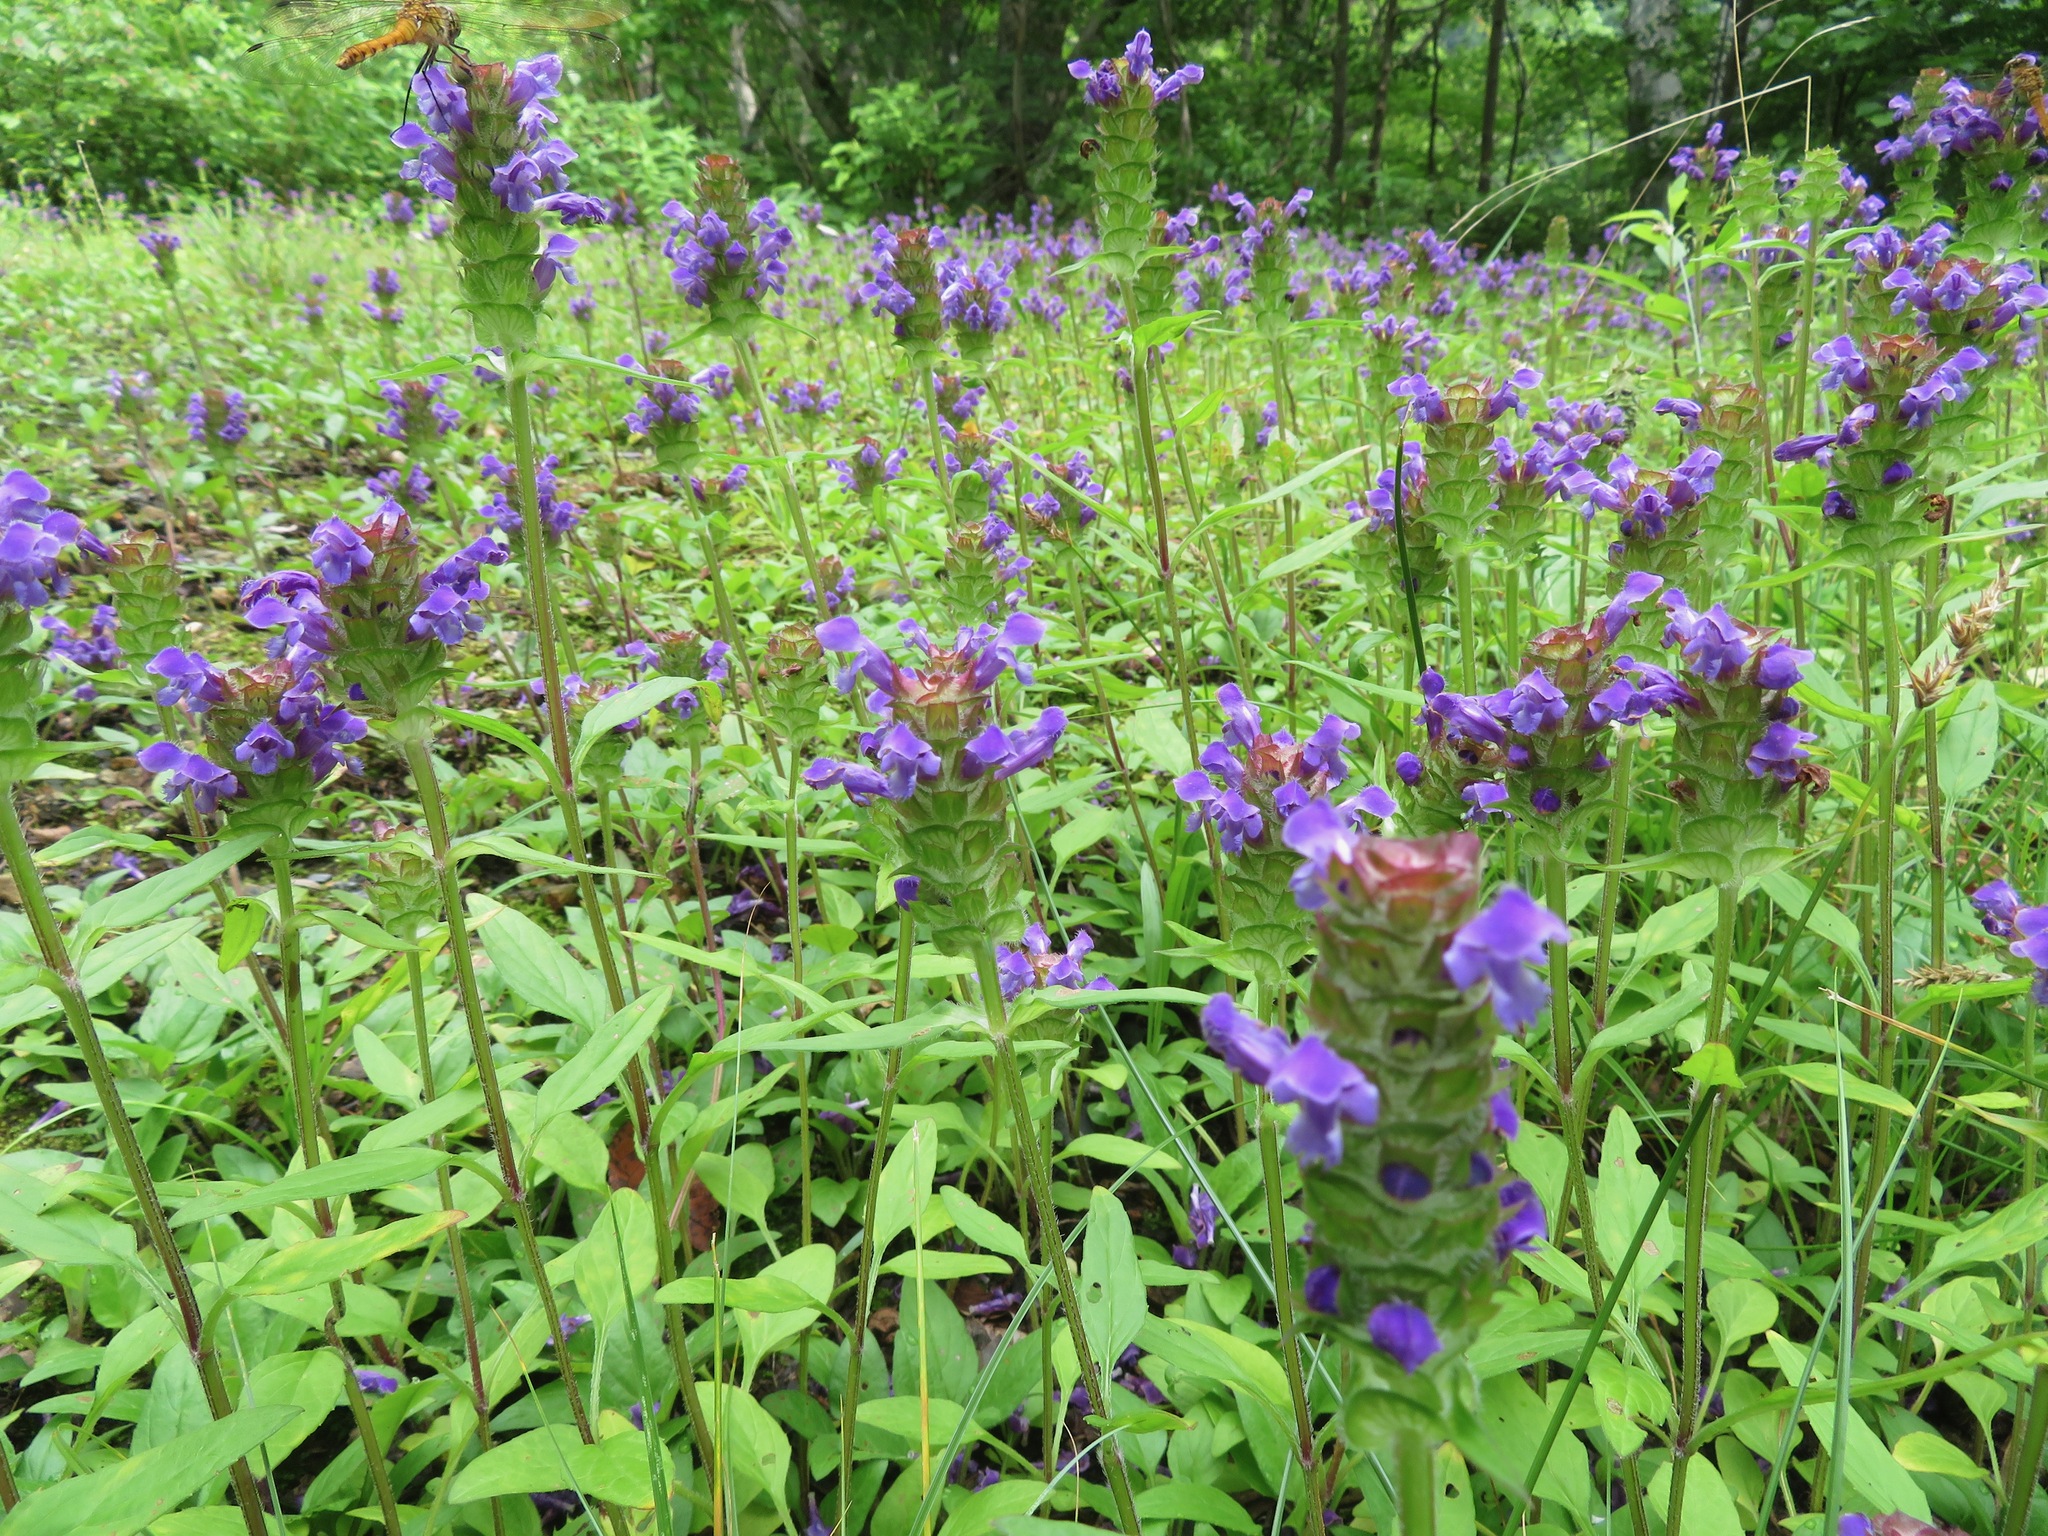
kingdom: Plantae
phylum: Tracheophyta
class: Magnoliopsida
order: Lamiales
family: Lamiaceae
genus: Prunella
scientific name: Prunella vulgaris
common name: Heal-all
